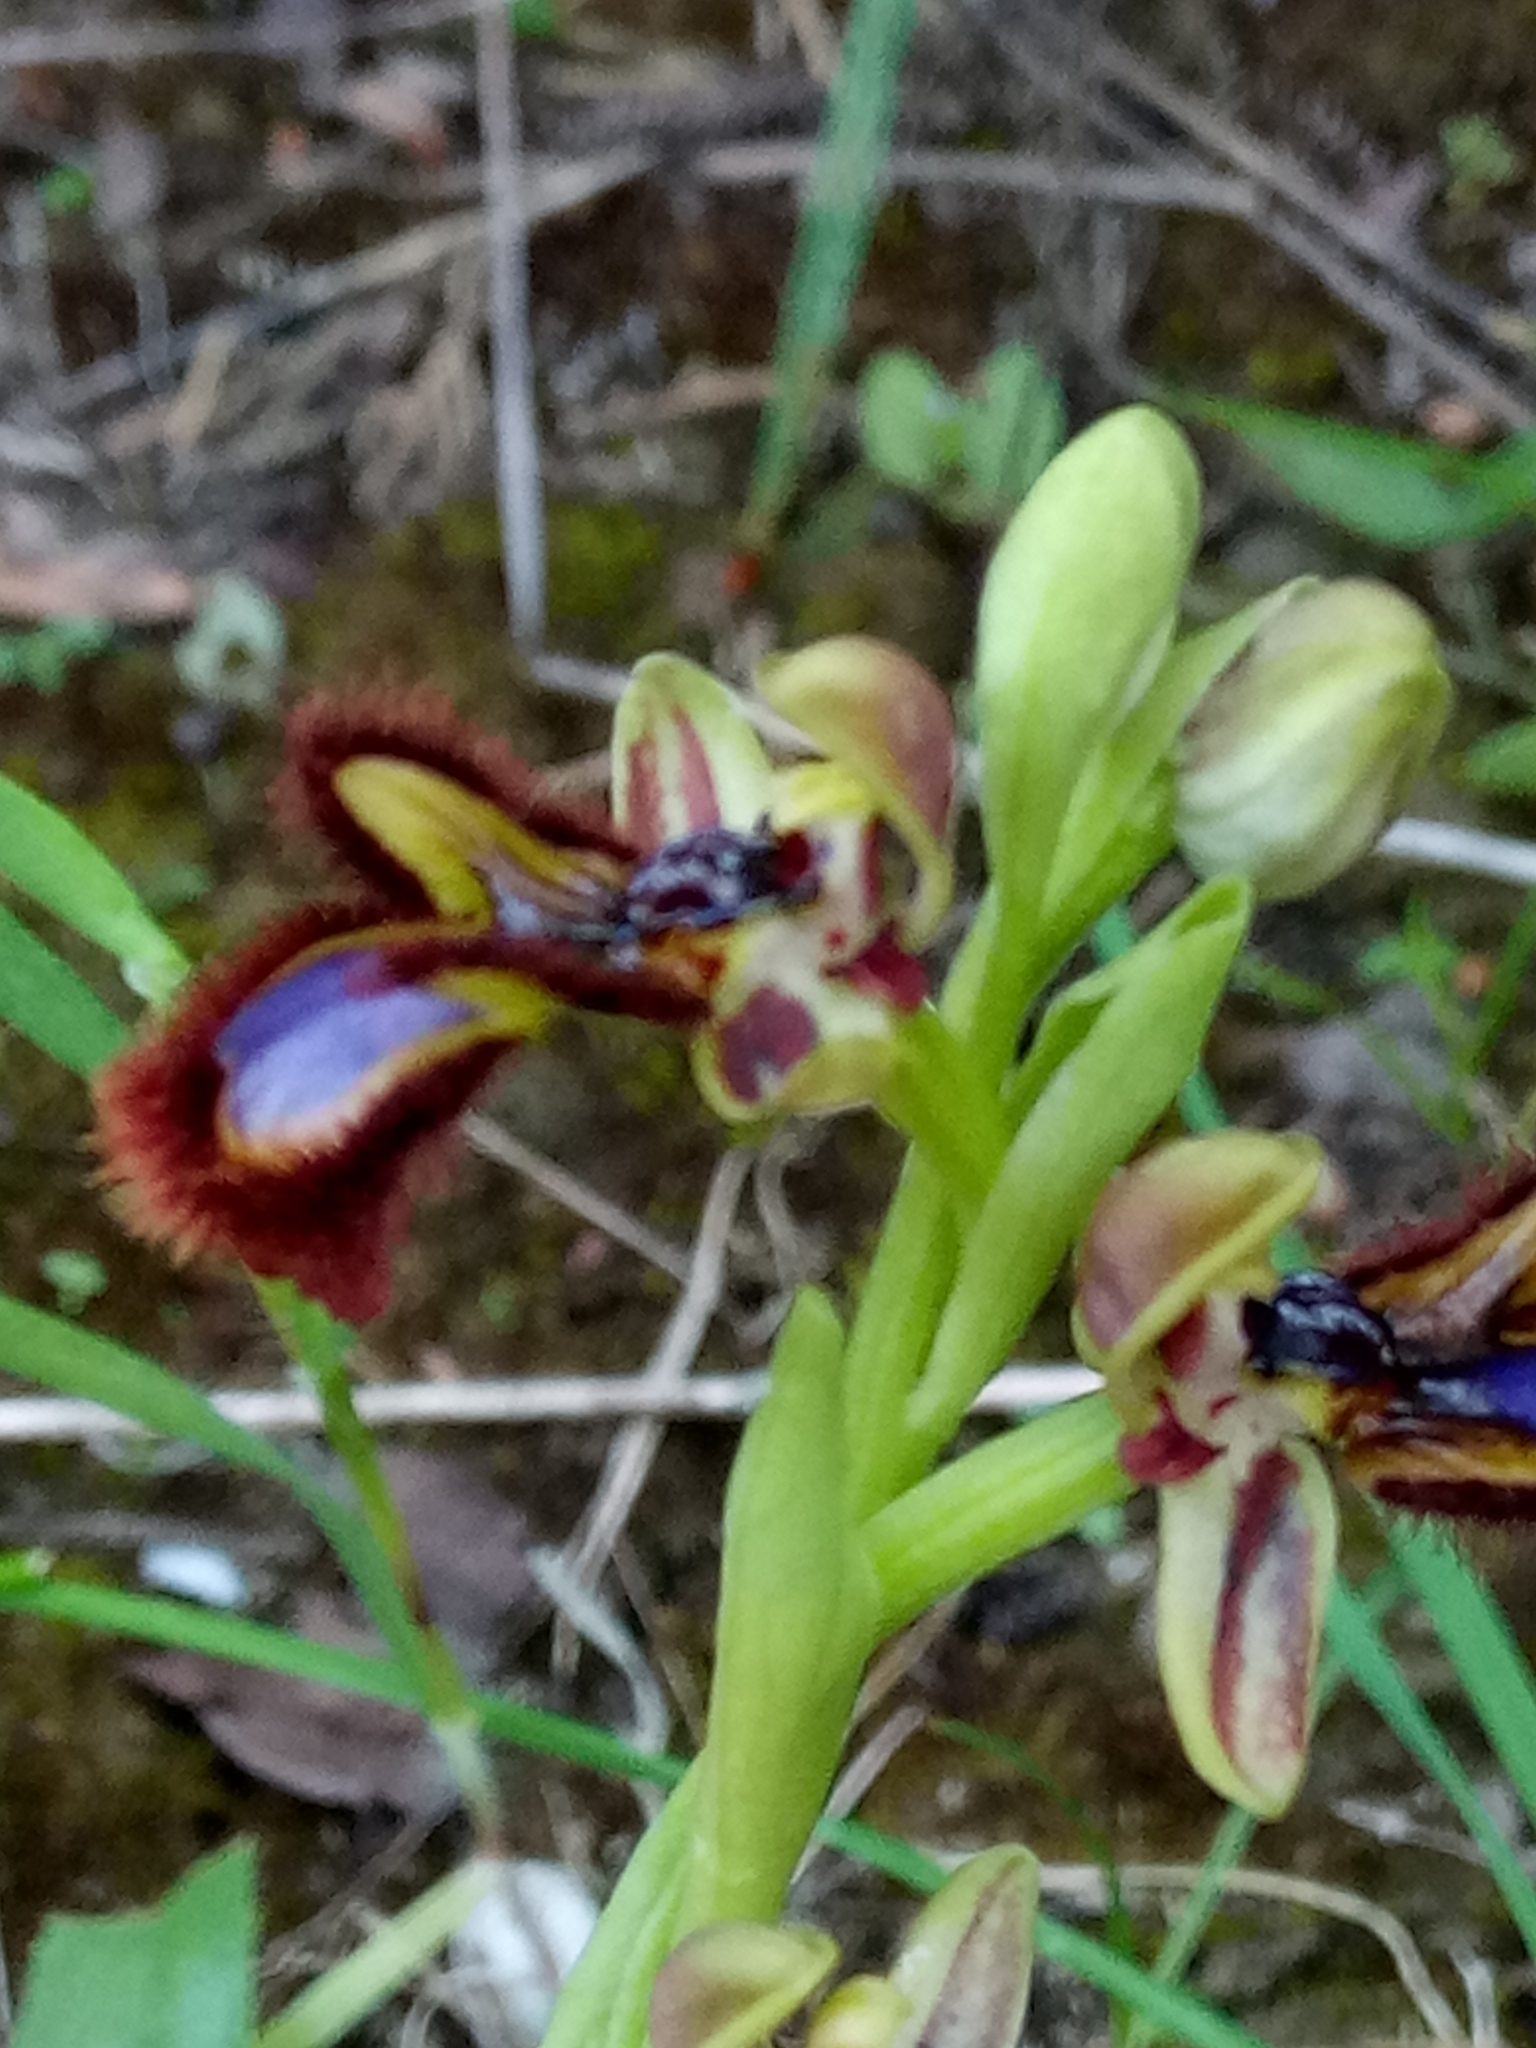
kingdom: Plantae
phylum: Tracheophyta
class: Liliopsida
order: Asparagales
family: Orchidaceae
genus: Ophrys
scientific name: Ophrys speculum
